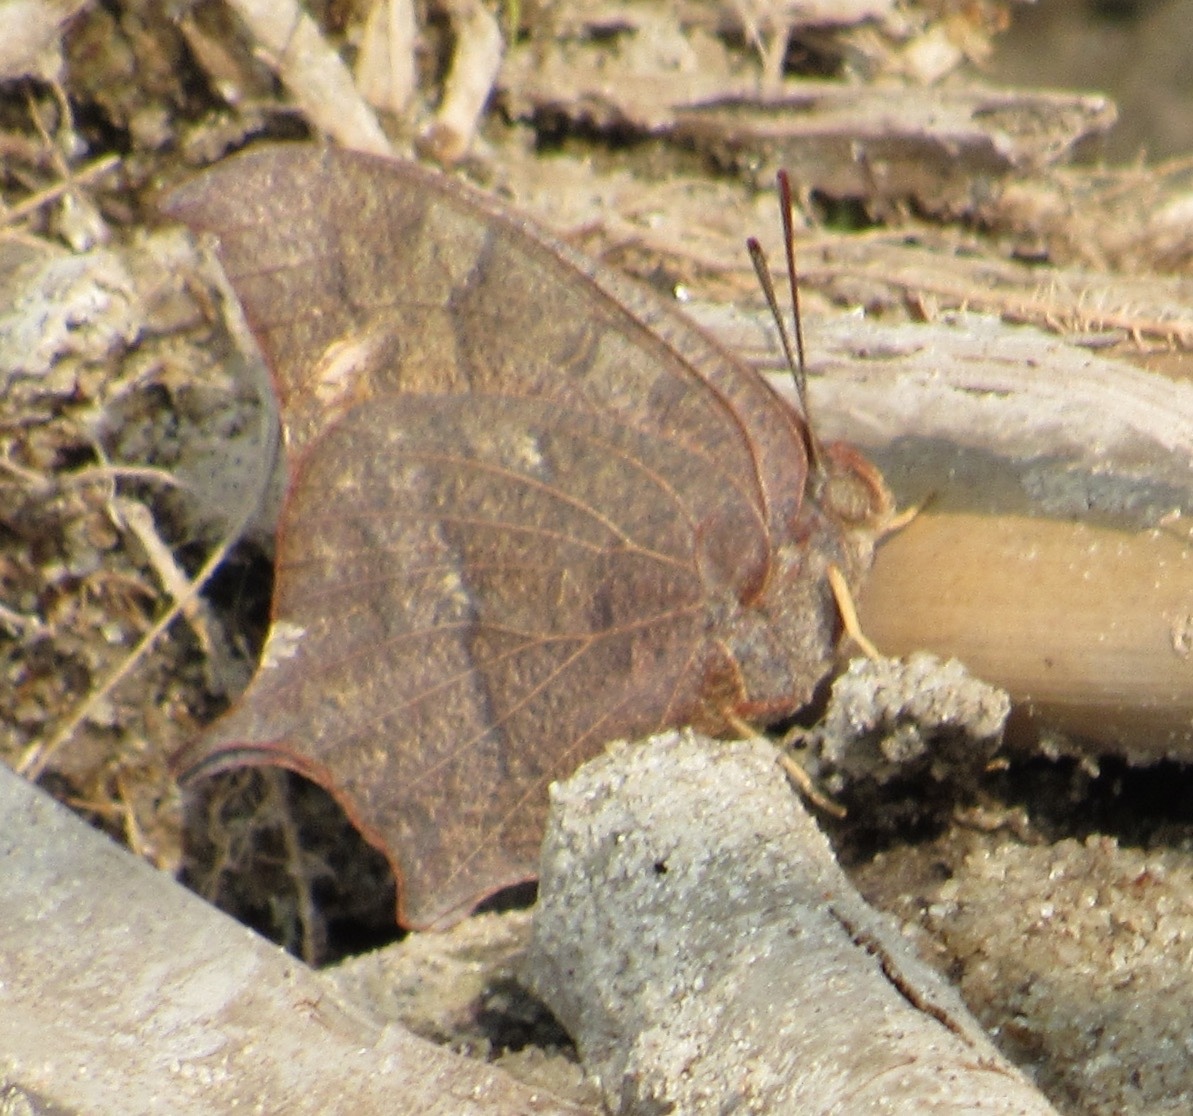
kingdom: Animalia
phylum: Arthropoda
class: Insecta
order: Lepidoptera
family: Nymphalidae
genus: Anaea
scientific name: Anaea andria
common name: Goatweed leafwing
